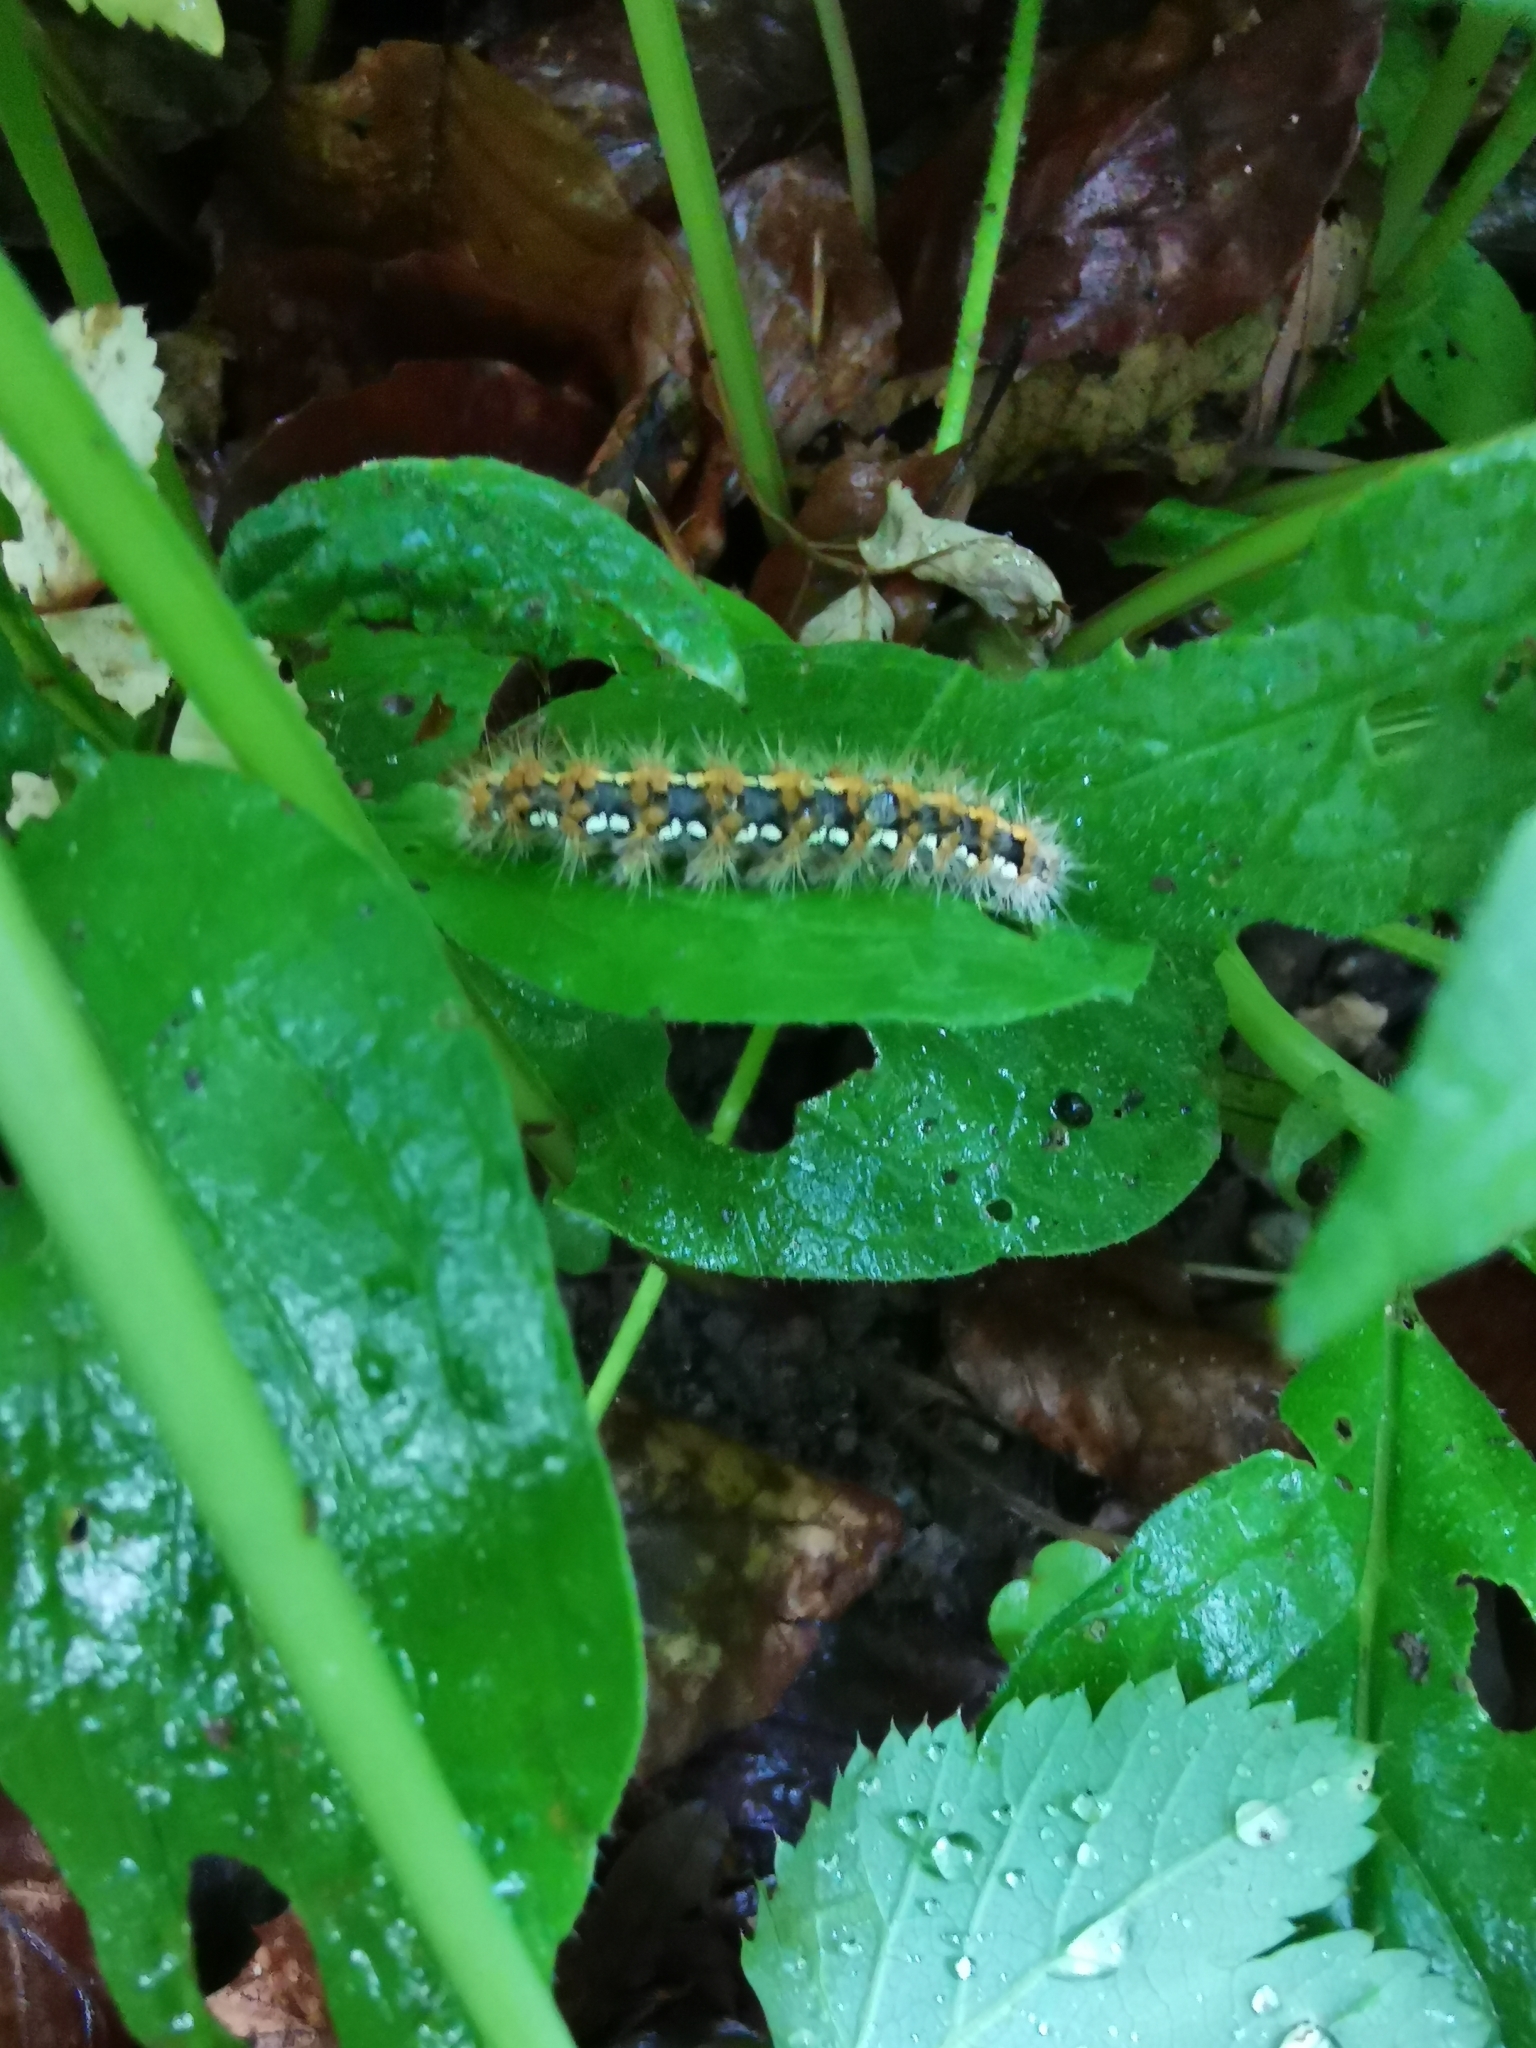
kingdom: Animalia
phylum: Arthropoda
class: Insecta
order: Lepidoptera
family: Erebidae
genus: Euplagia
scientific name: Euplagia quadripunctaria
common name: Jersey tiger
